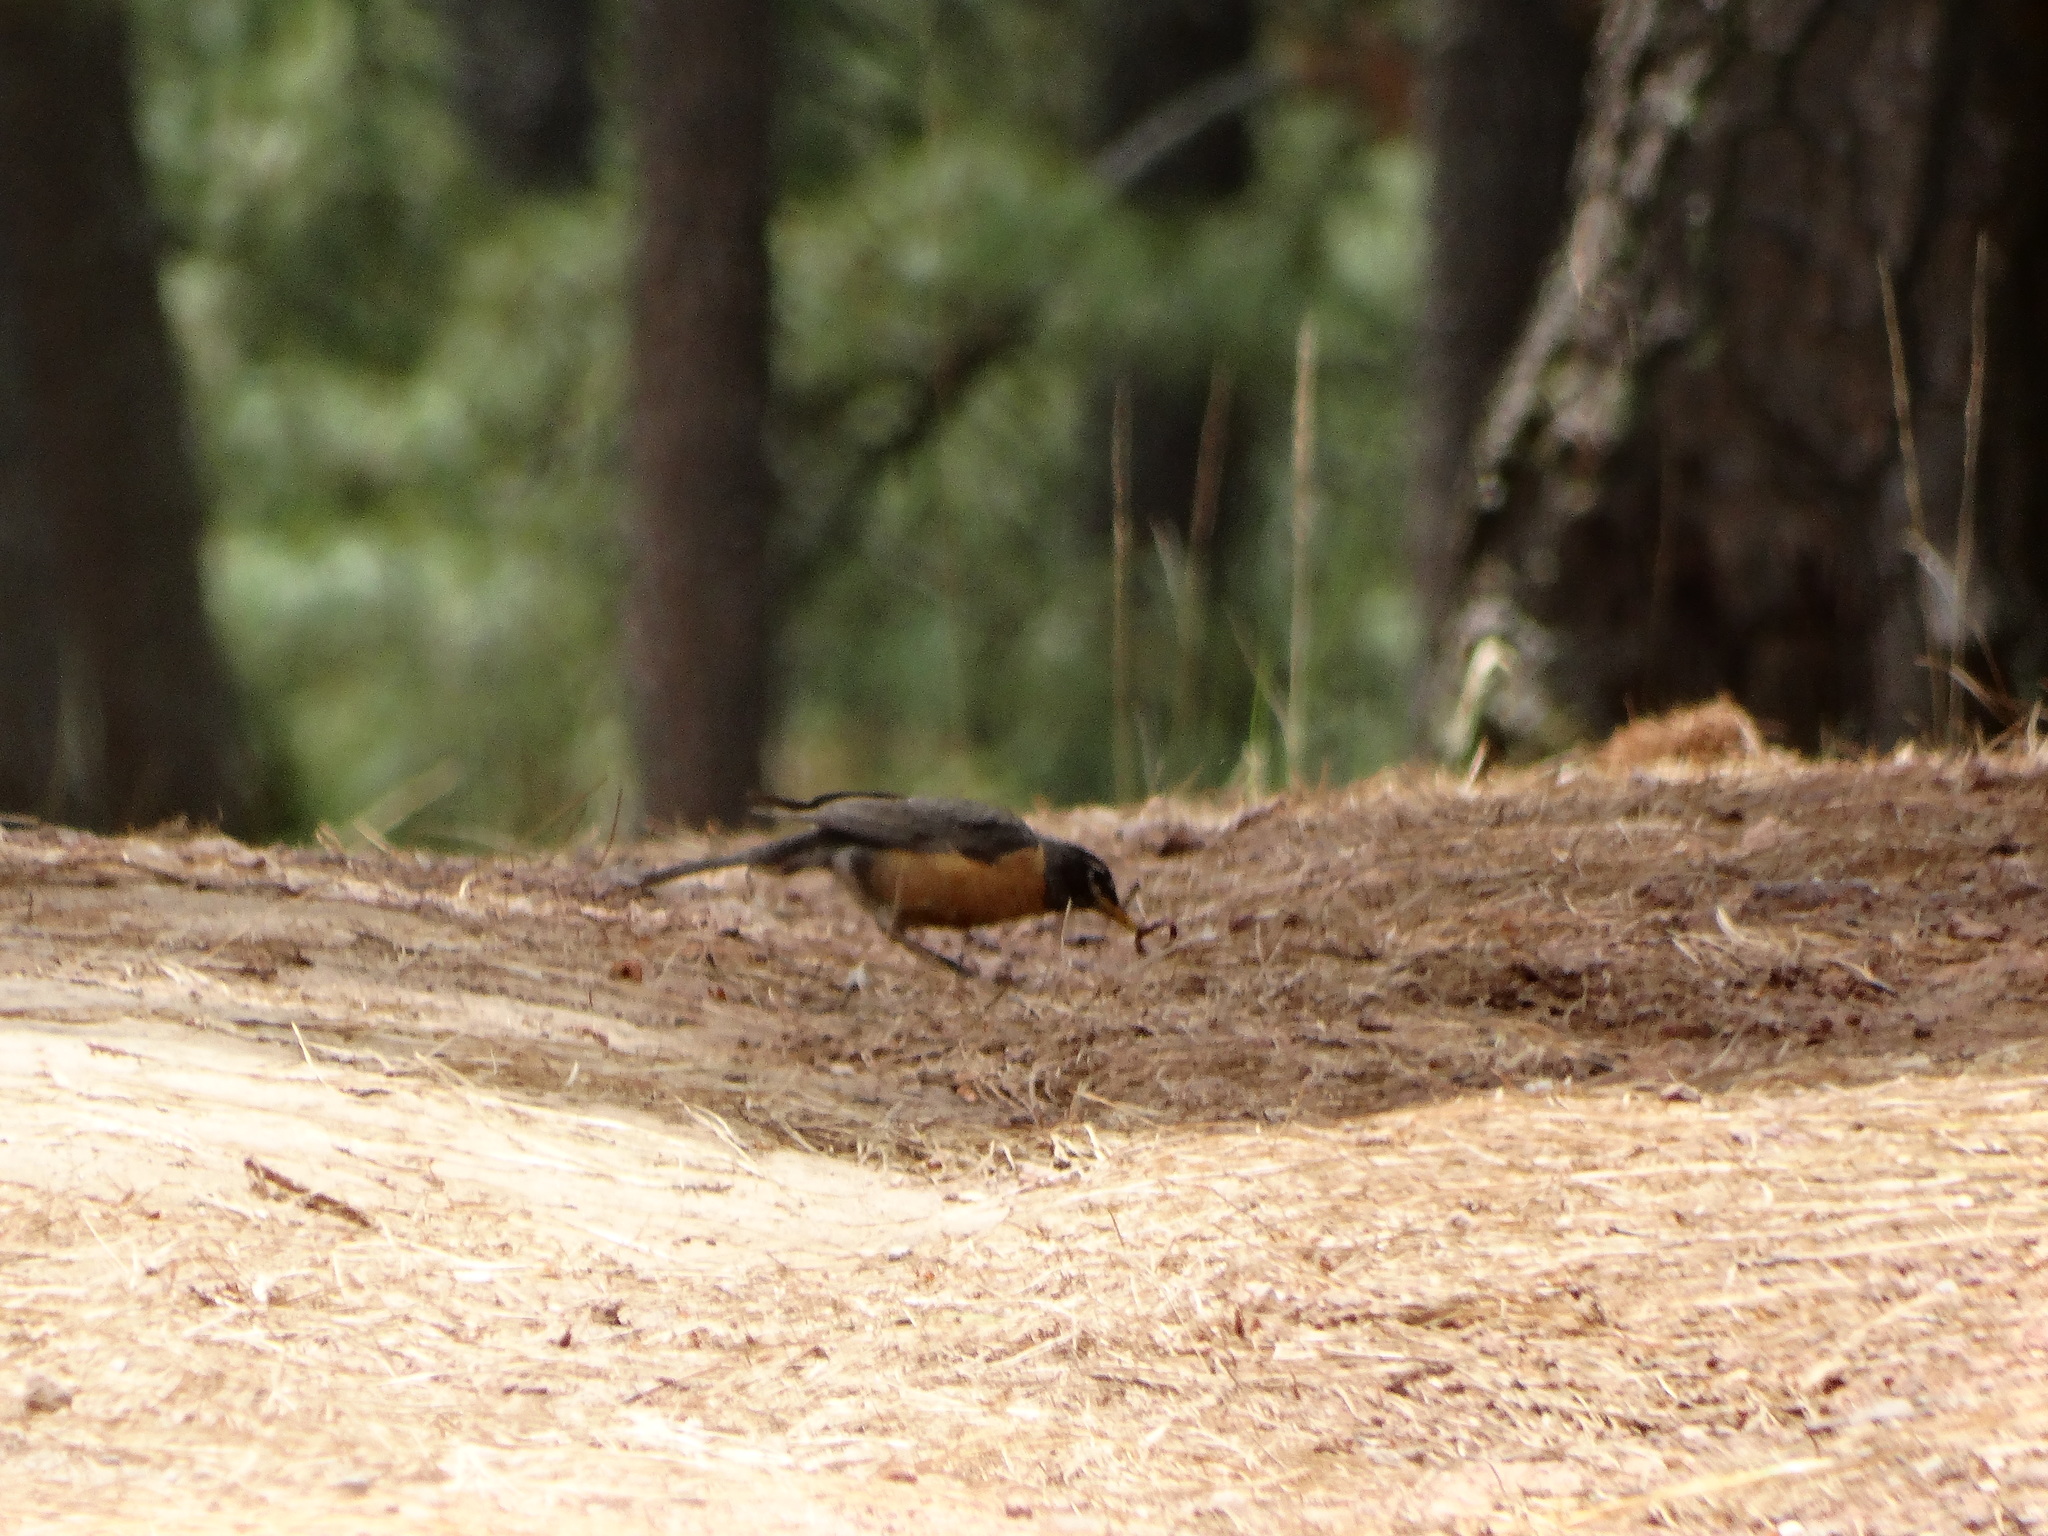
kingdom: Animalia
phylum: Chordata
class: Aves
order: Passeriformes
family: Turdidae
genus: Turdus
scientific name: Turdus migratorius
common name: American robin
